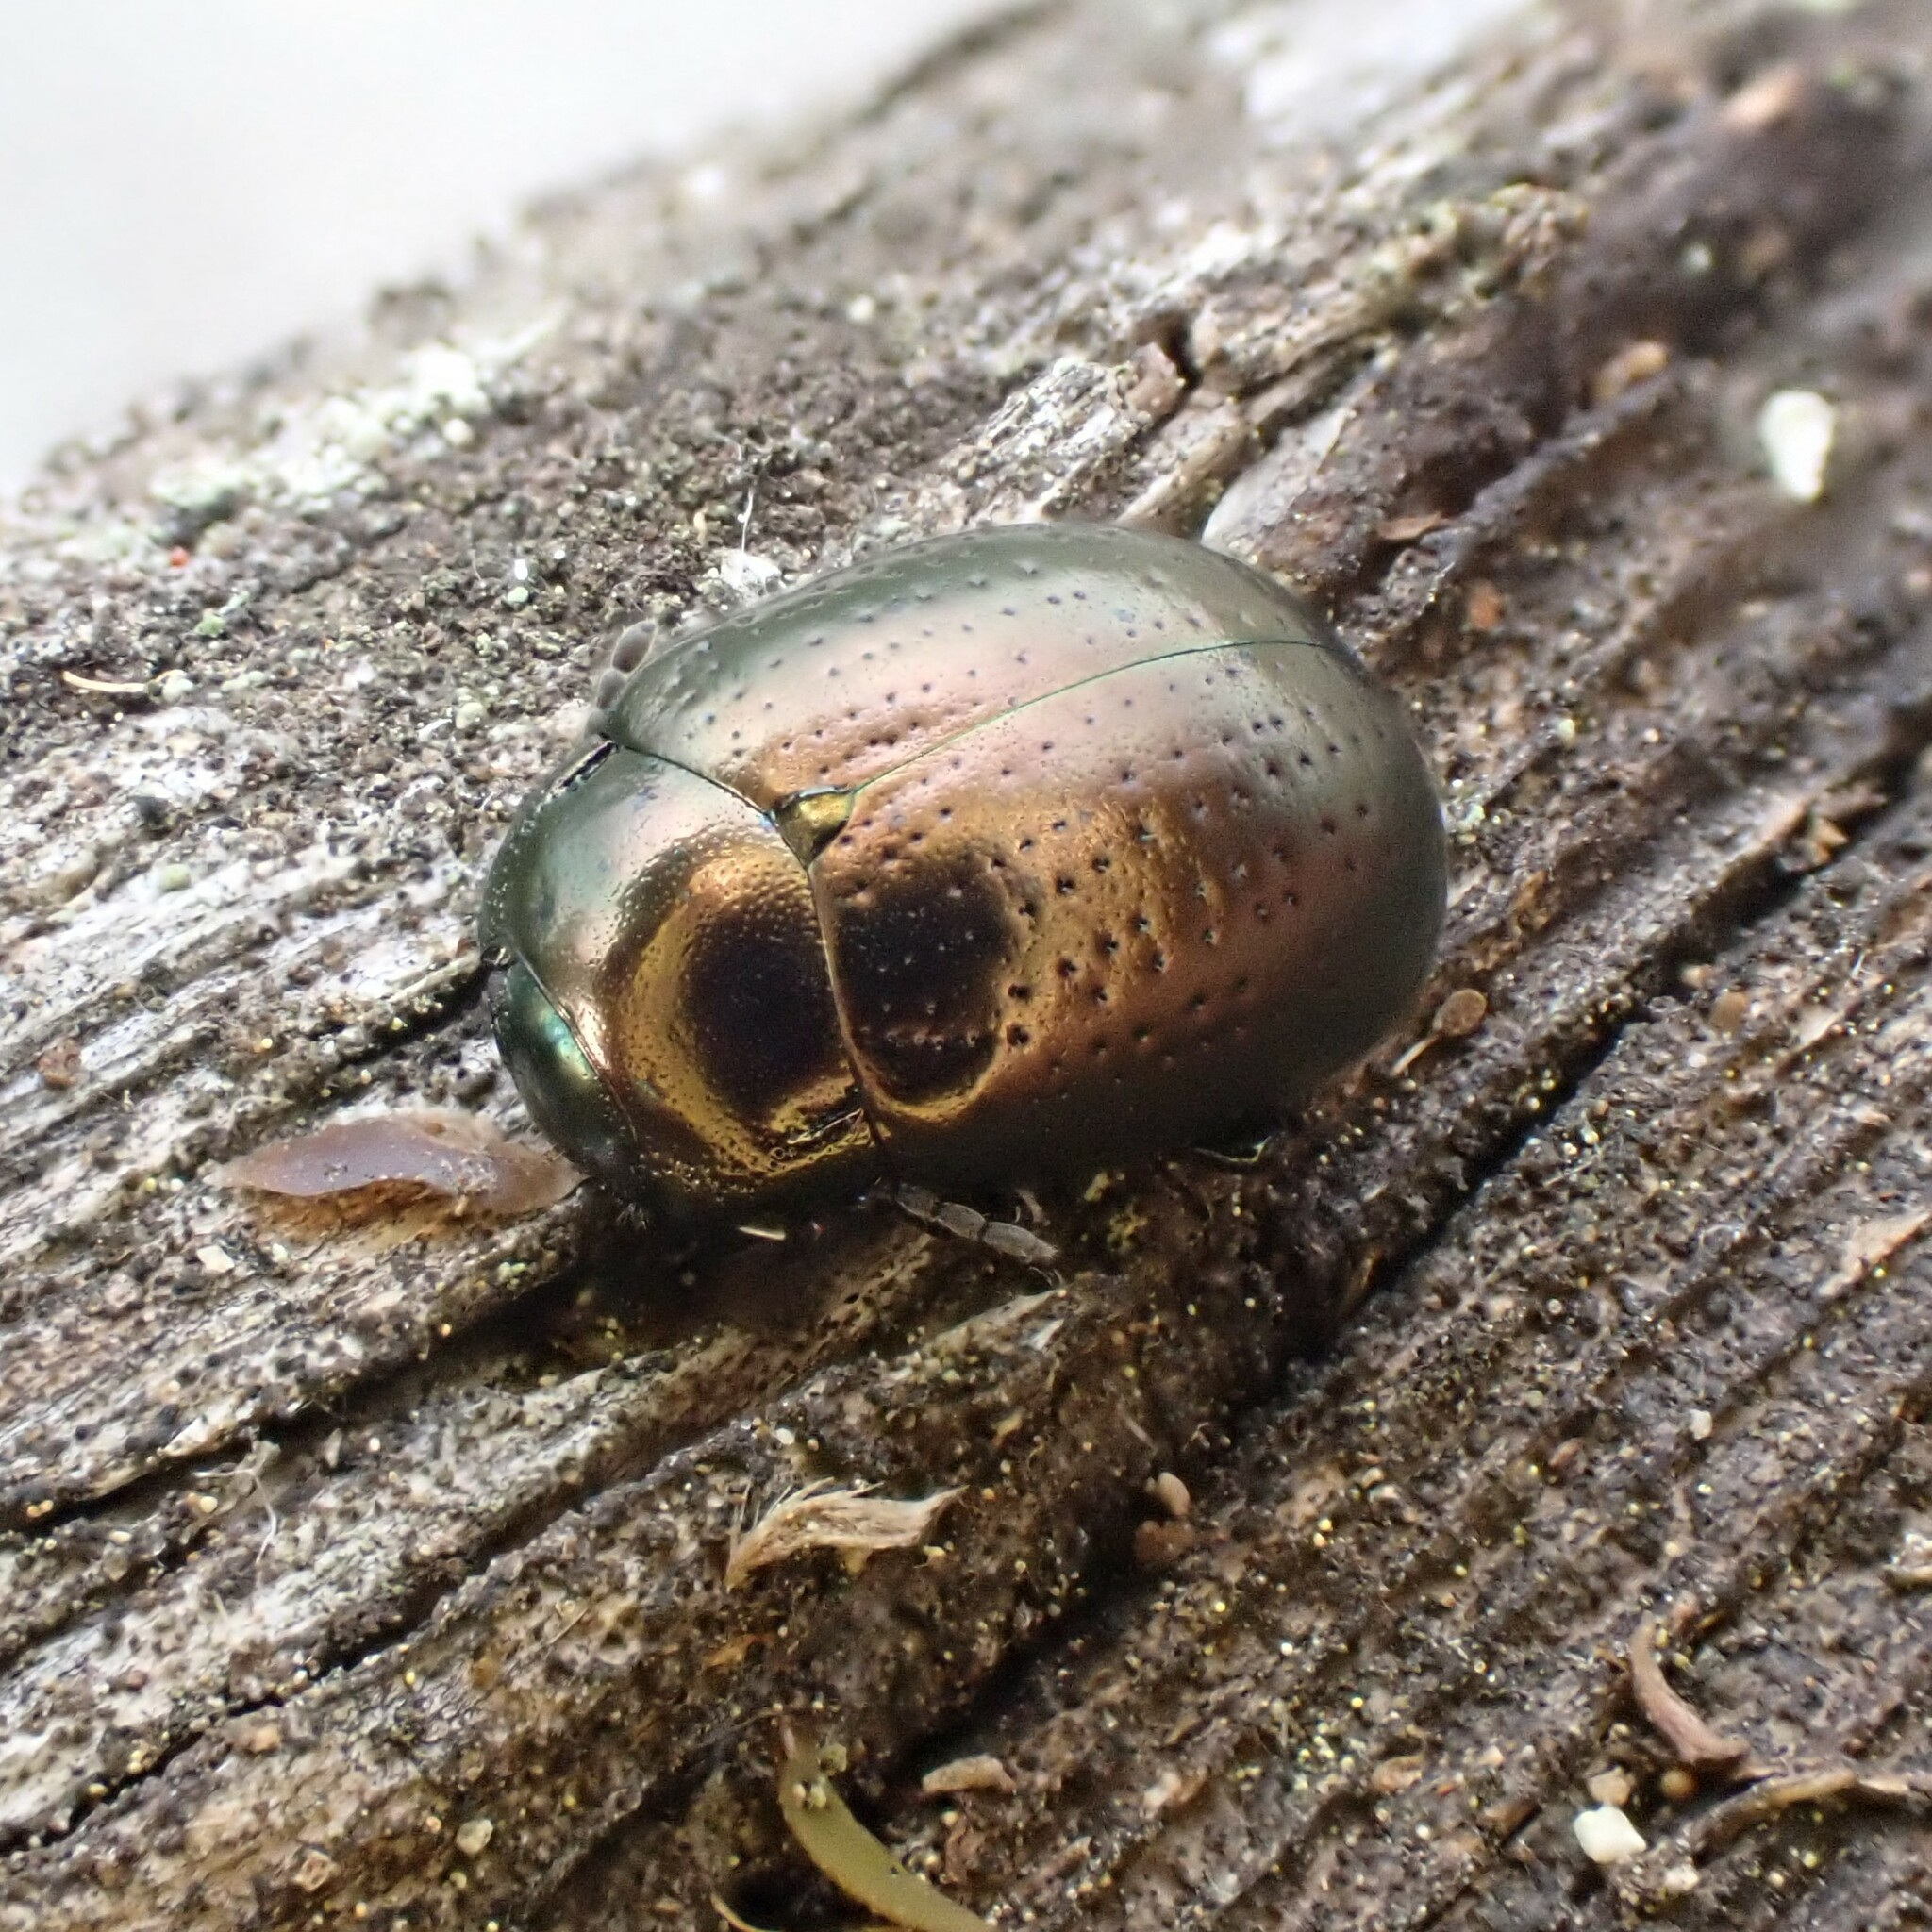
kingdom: Animalia
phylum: Arthropoda
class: Insecta
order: Coleoptera
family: Chrysomelidae
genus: Chrysolina
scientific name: Chrysolina hyperici
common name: St. johnswort beetle
